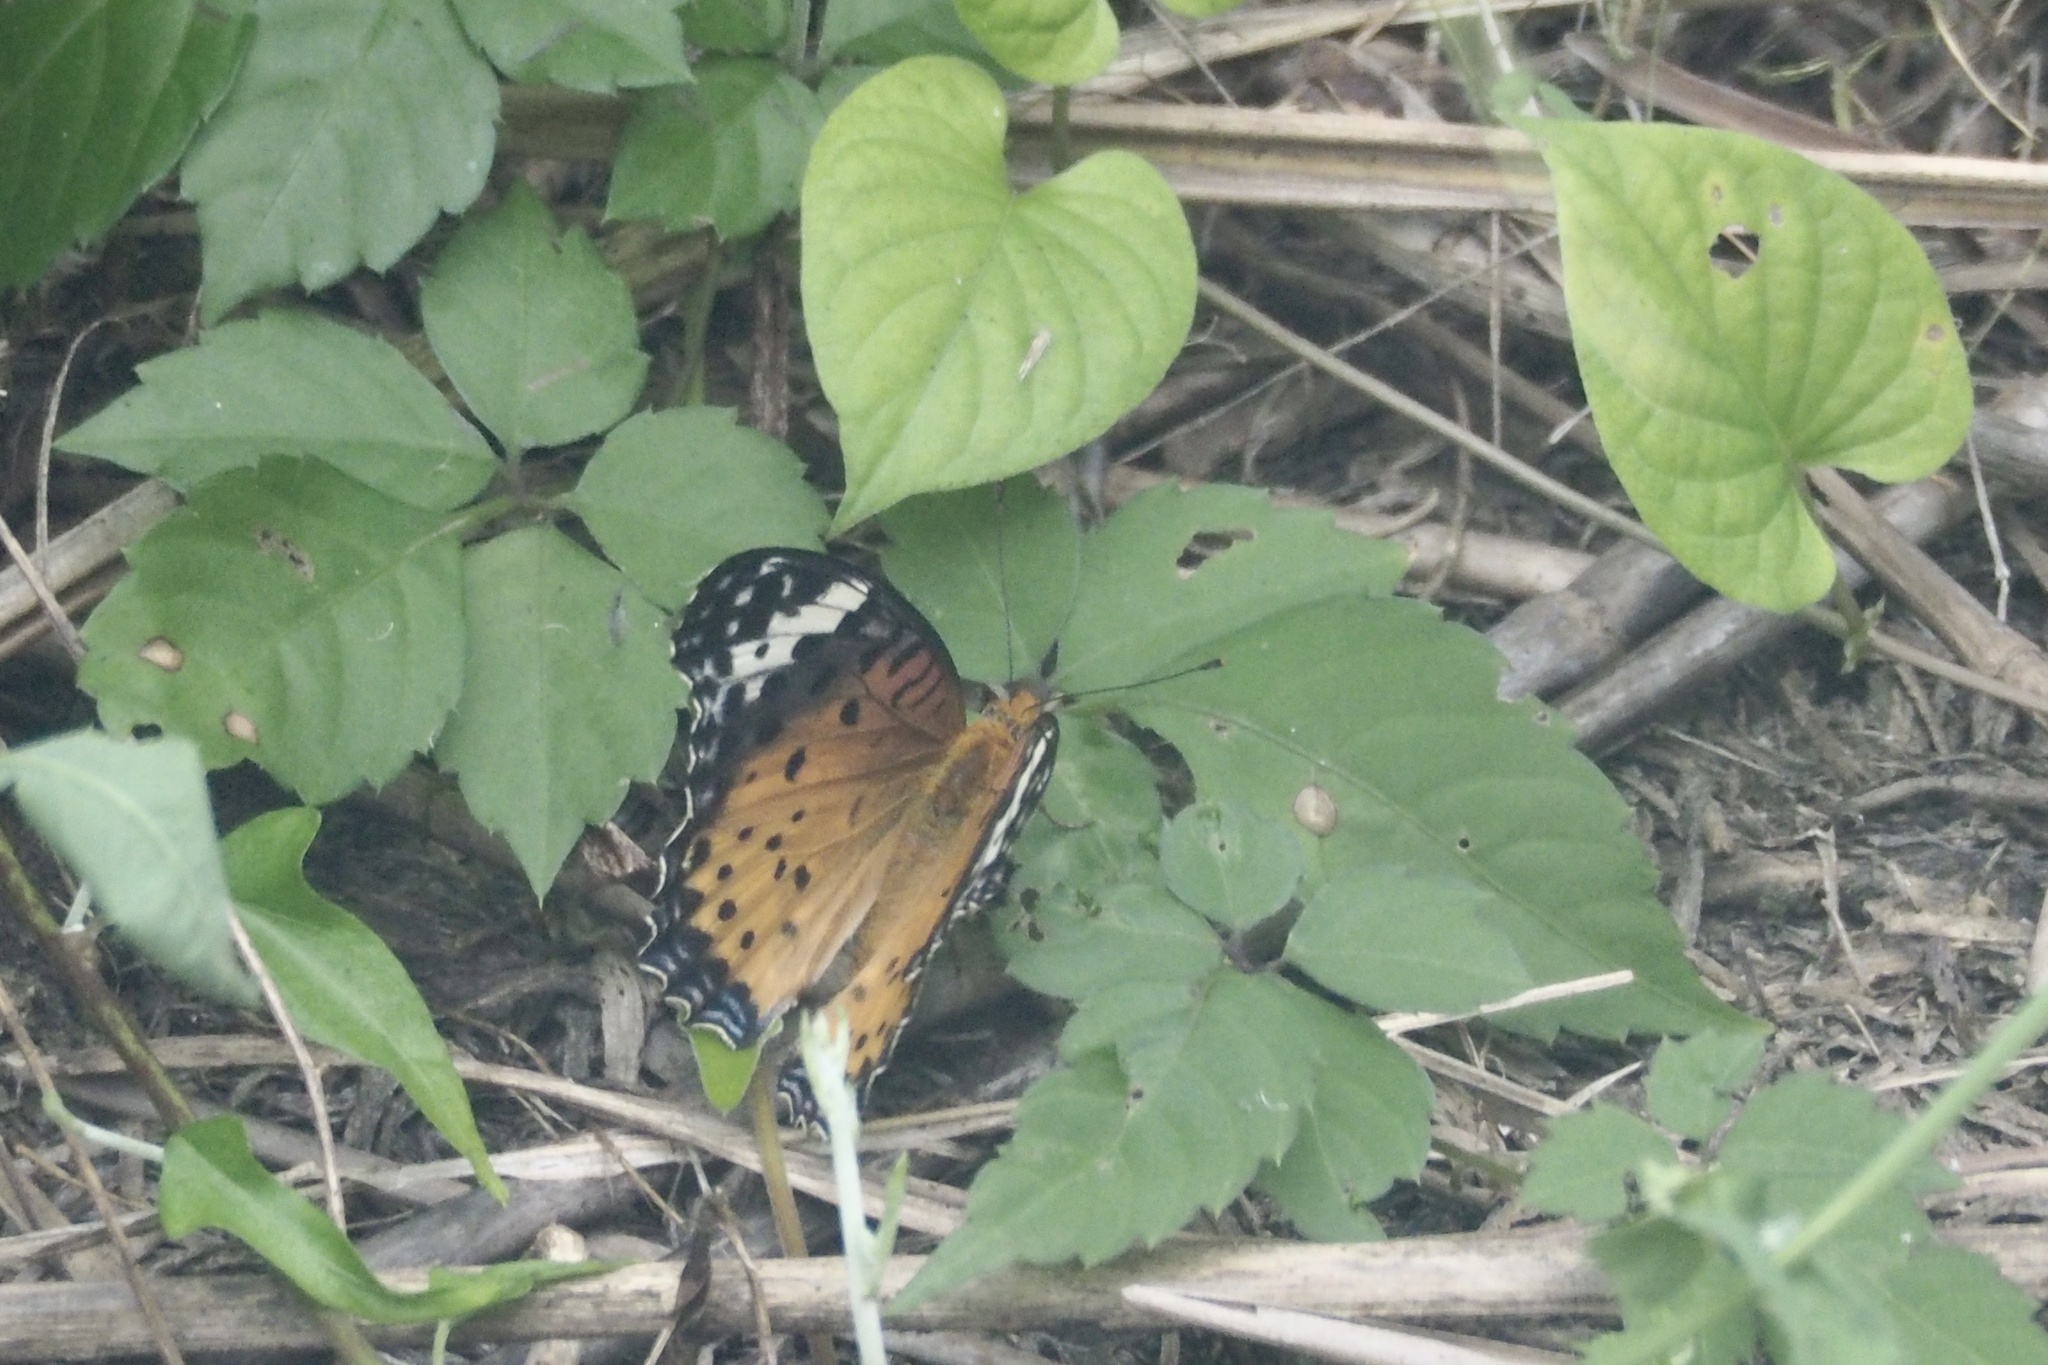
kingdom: Animalia
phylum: Arthropoda
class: Insecta
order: Lepidoptera
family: Nymphalidae
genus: Argynnis
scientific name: Argynnis hyperbius
